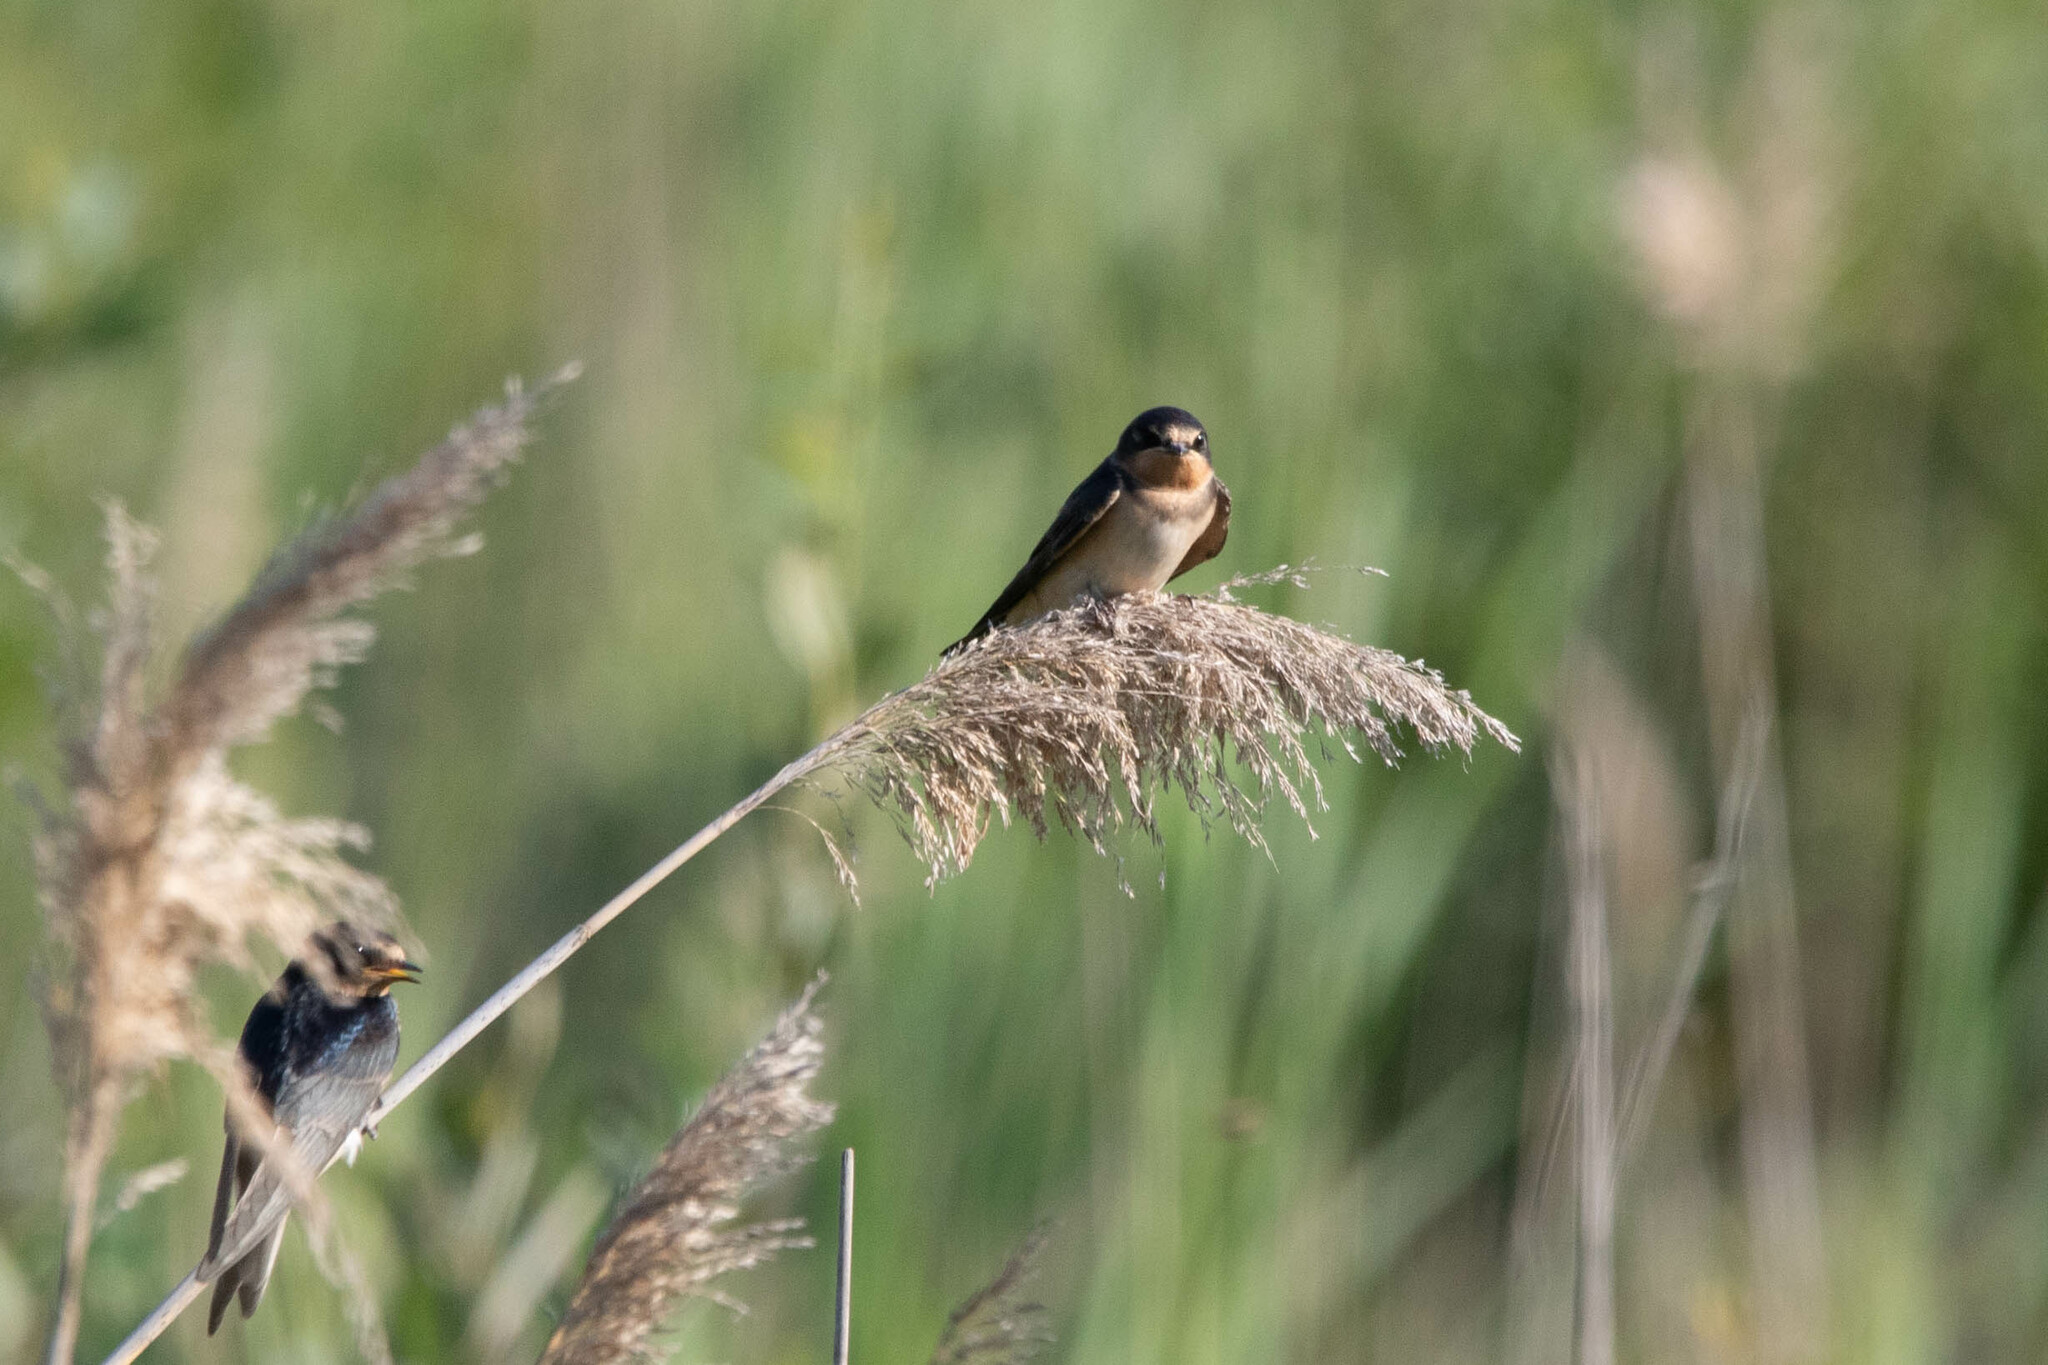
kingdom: Animalia
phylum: Chordata
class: Aves
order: Passeriformes
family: Hirundinidae
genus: Hirundo
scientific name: Hirundo rustica
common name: Barn swallow
